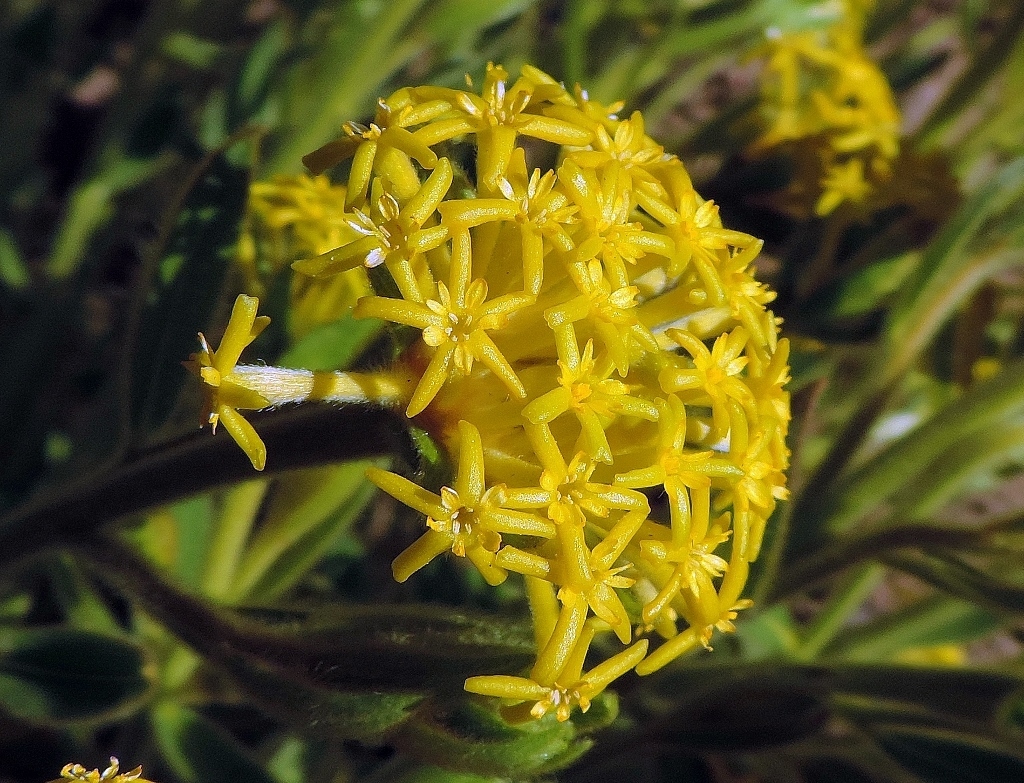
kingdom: Plantae
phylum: Tracheophyta
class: Magnoliopsida
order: Malvales
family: Thymelaeaceae
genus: Gnidia
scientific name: Gnidia kraussiana
